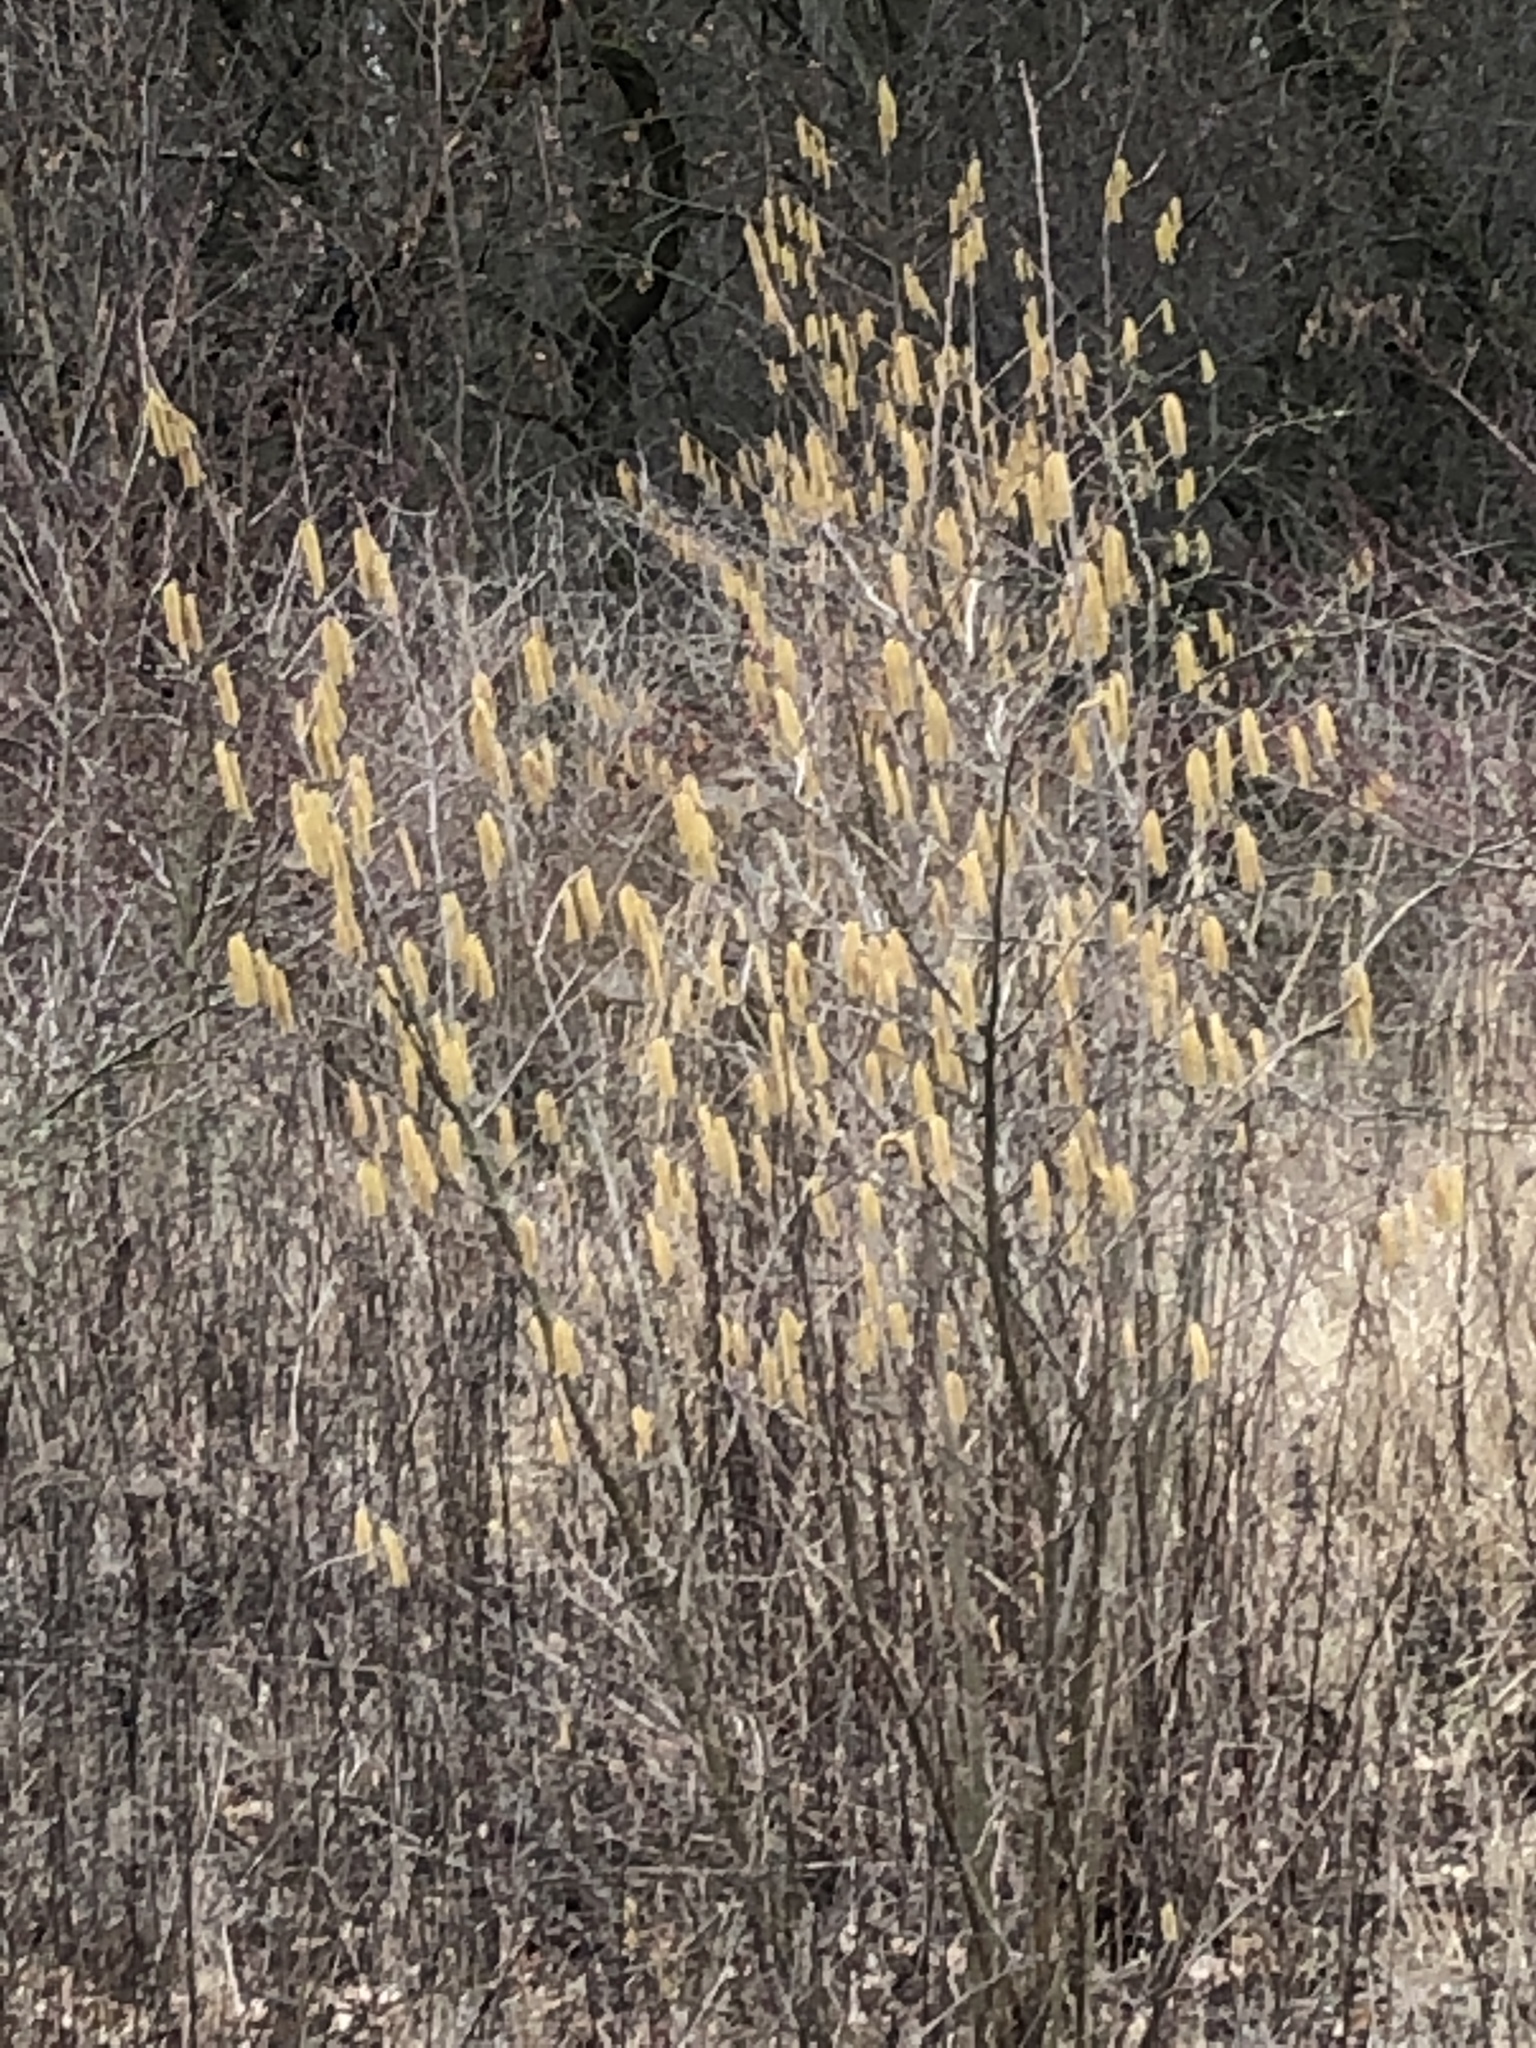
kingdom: Plantae
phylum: Tracheophyta
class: Magnoliopsida
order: Fagales
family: Betulaceae
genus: Corylus
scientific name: Corylus avellana
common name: European hazel
